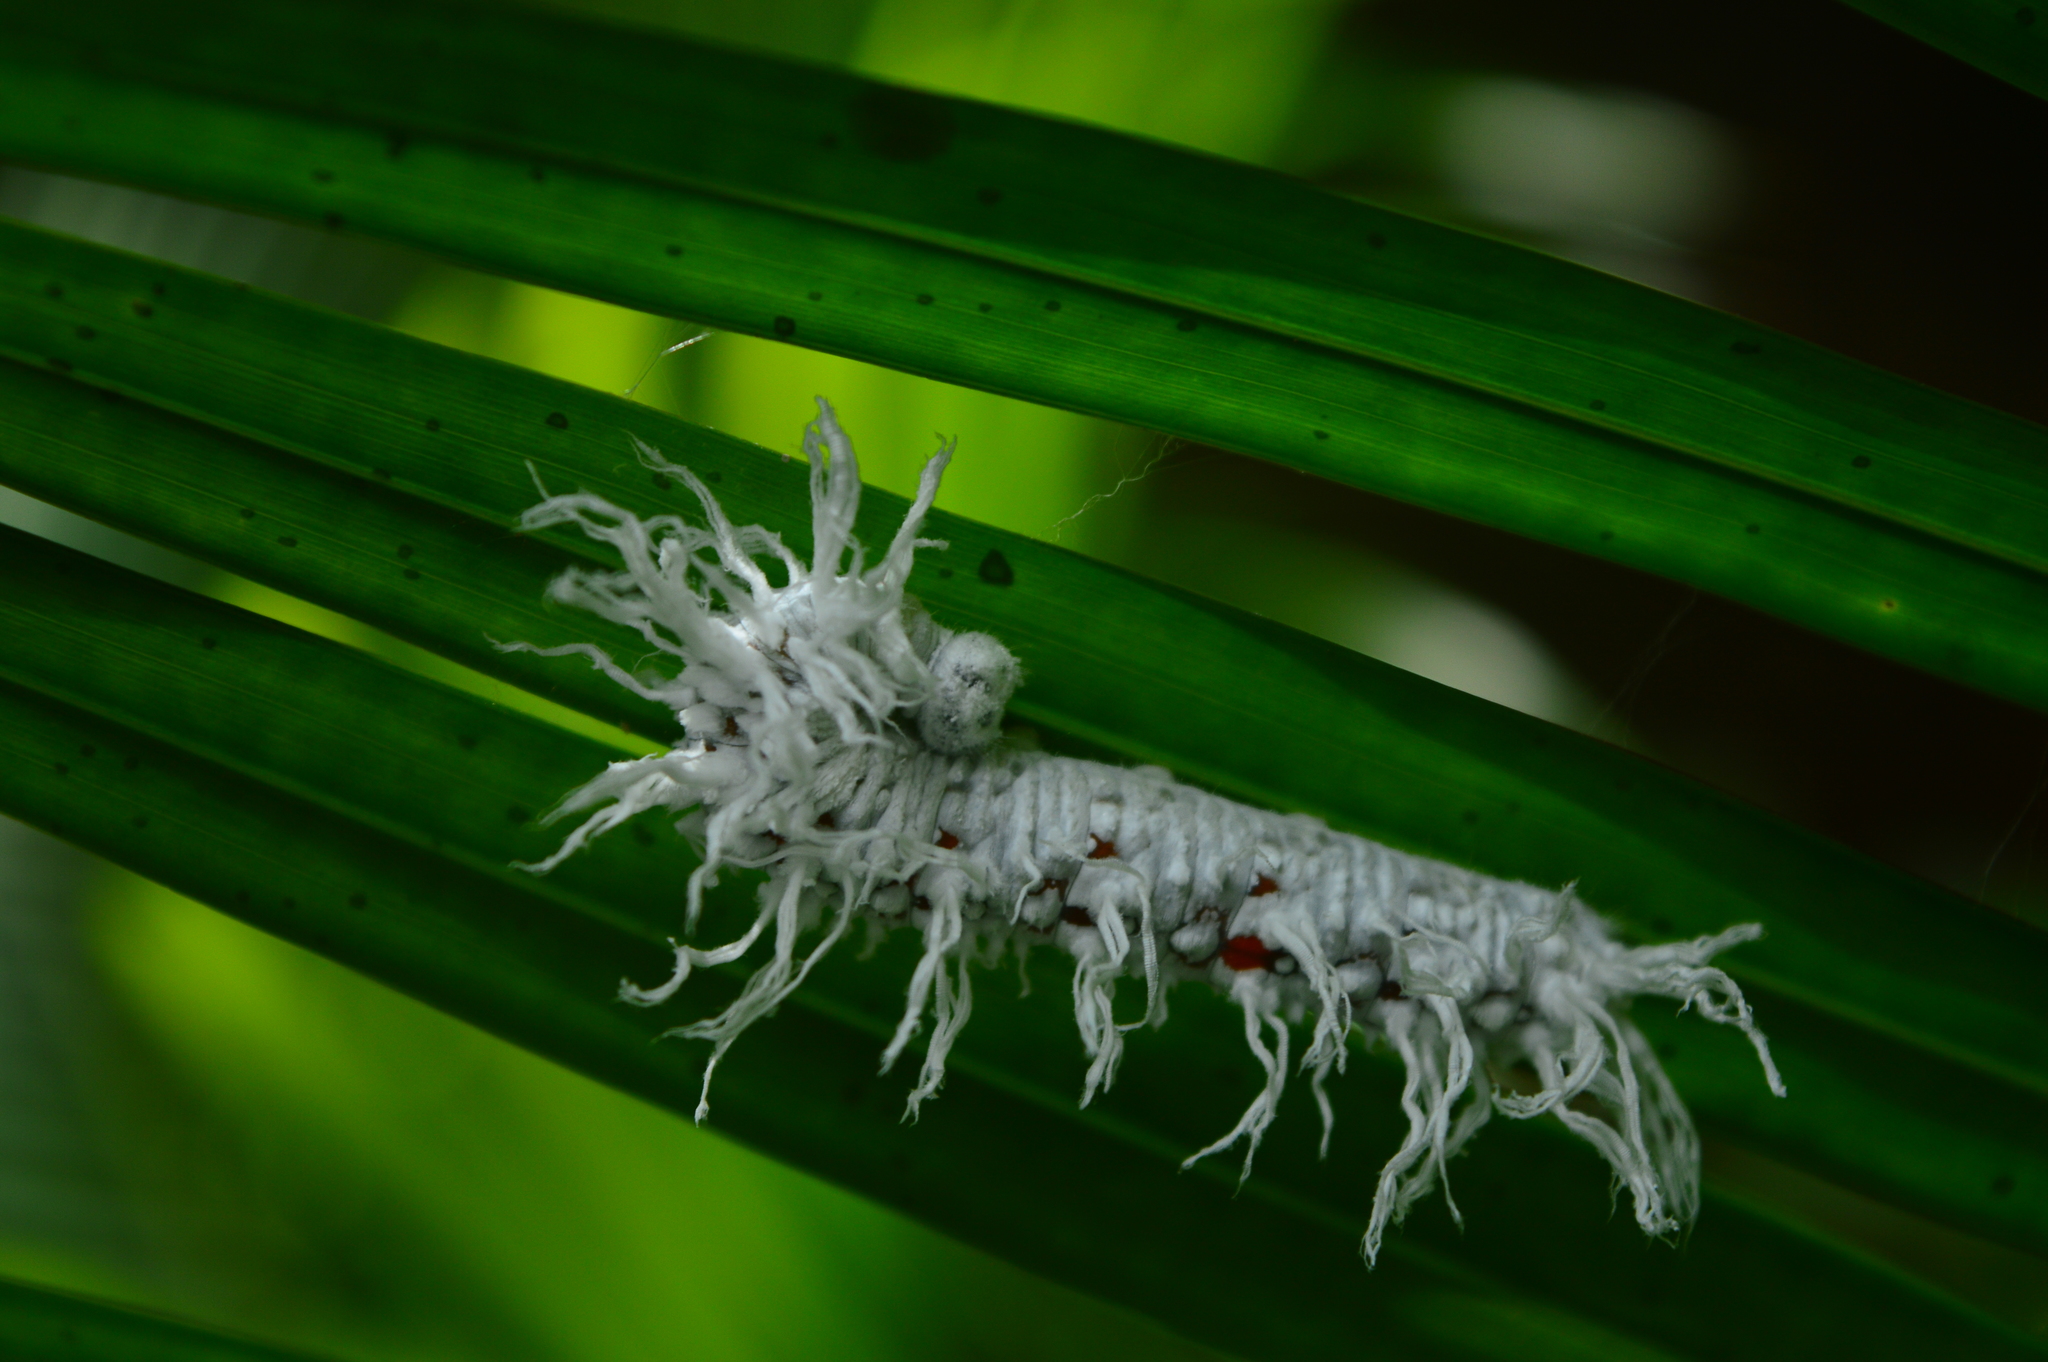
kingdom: Animalia
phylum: Arthropoda
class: Insecta
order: Lepidoptera
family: Hesperiidae
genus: Gangara
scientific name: Gangara thyrsis
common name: Giant redeye
